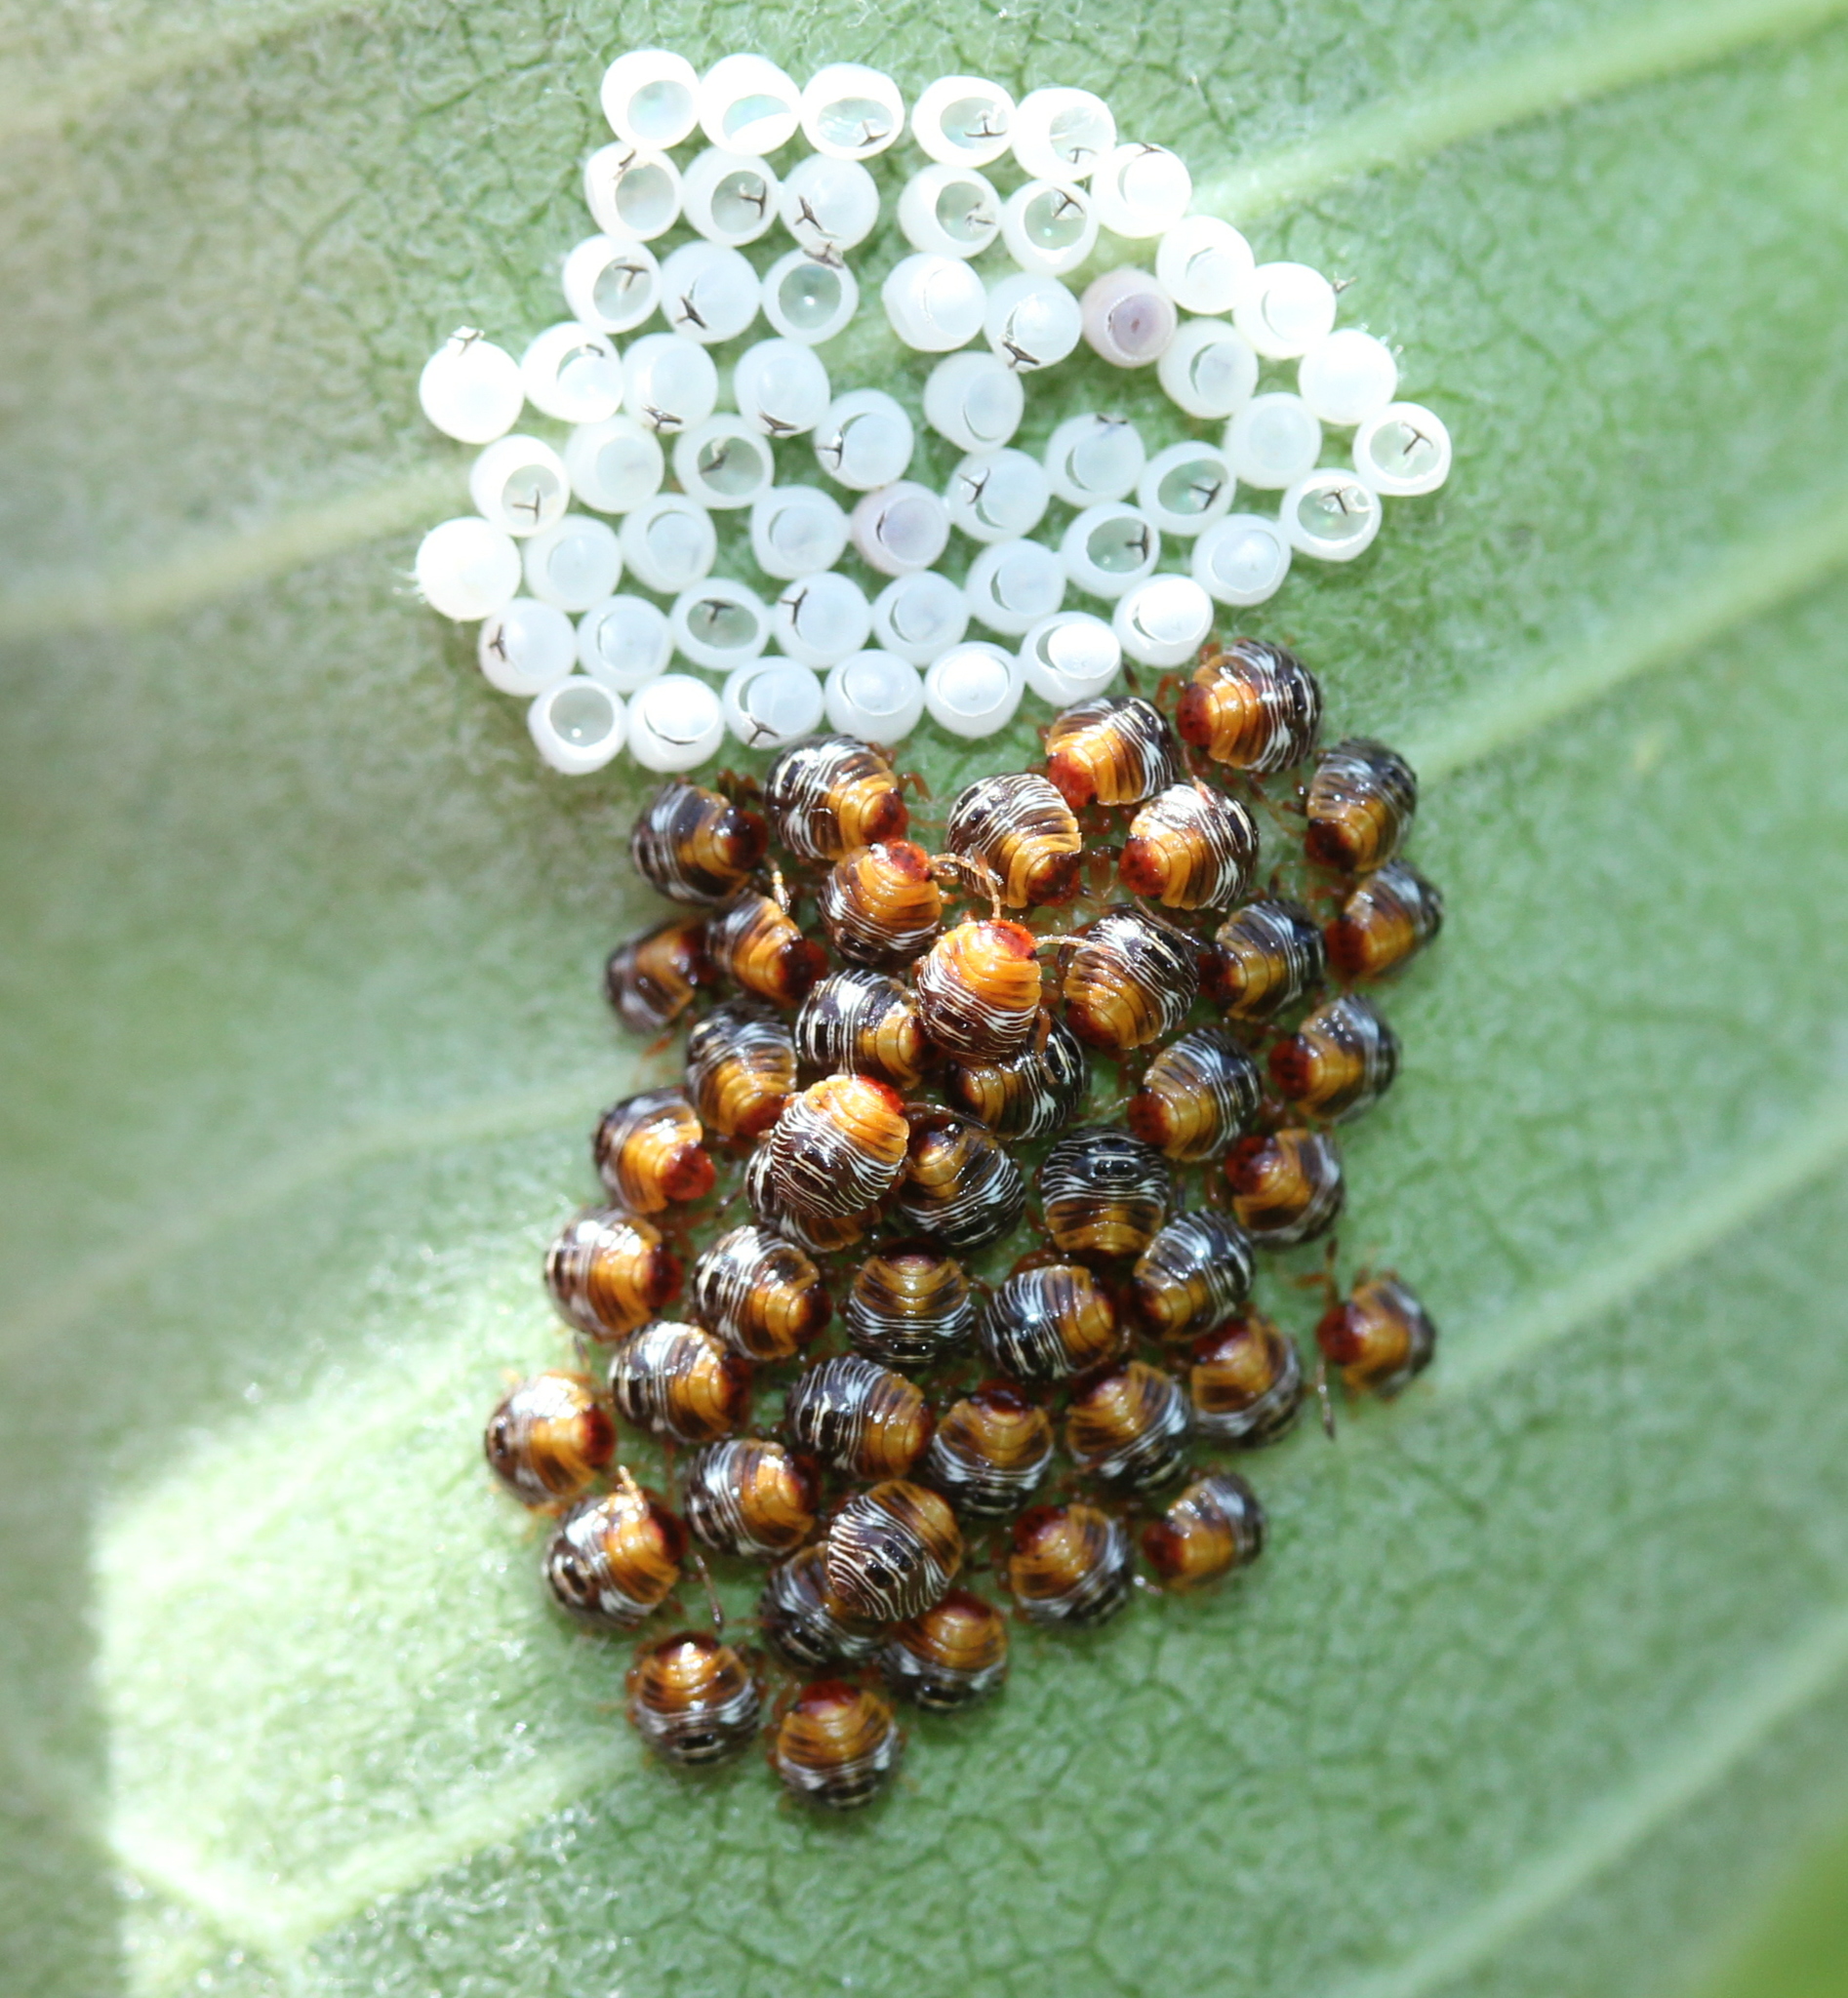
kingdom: Animalia
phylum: Arthropoda
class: Insecta
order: Hemiptera
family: Pentatomidae
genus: Chinavia
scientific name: Chinavia hilaris
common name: Green stink bug
